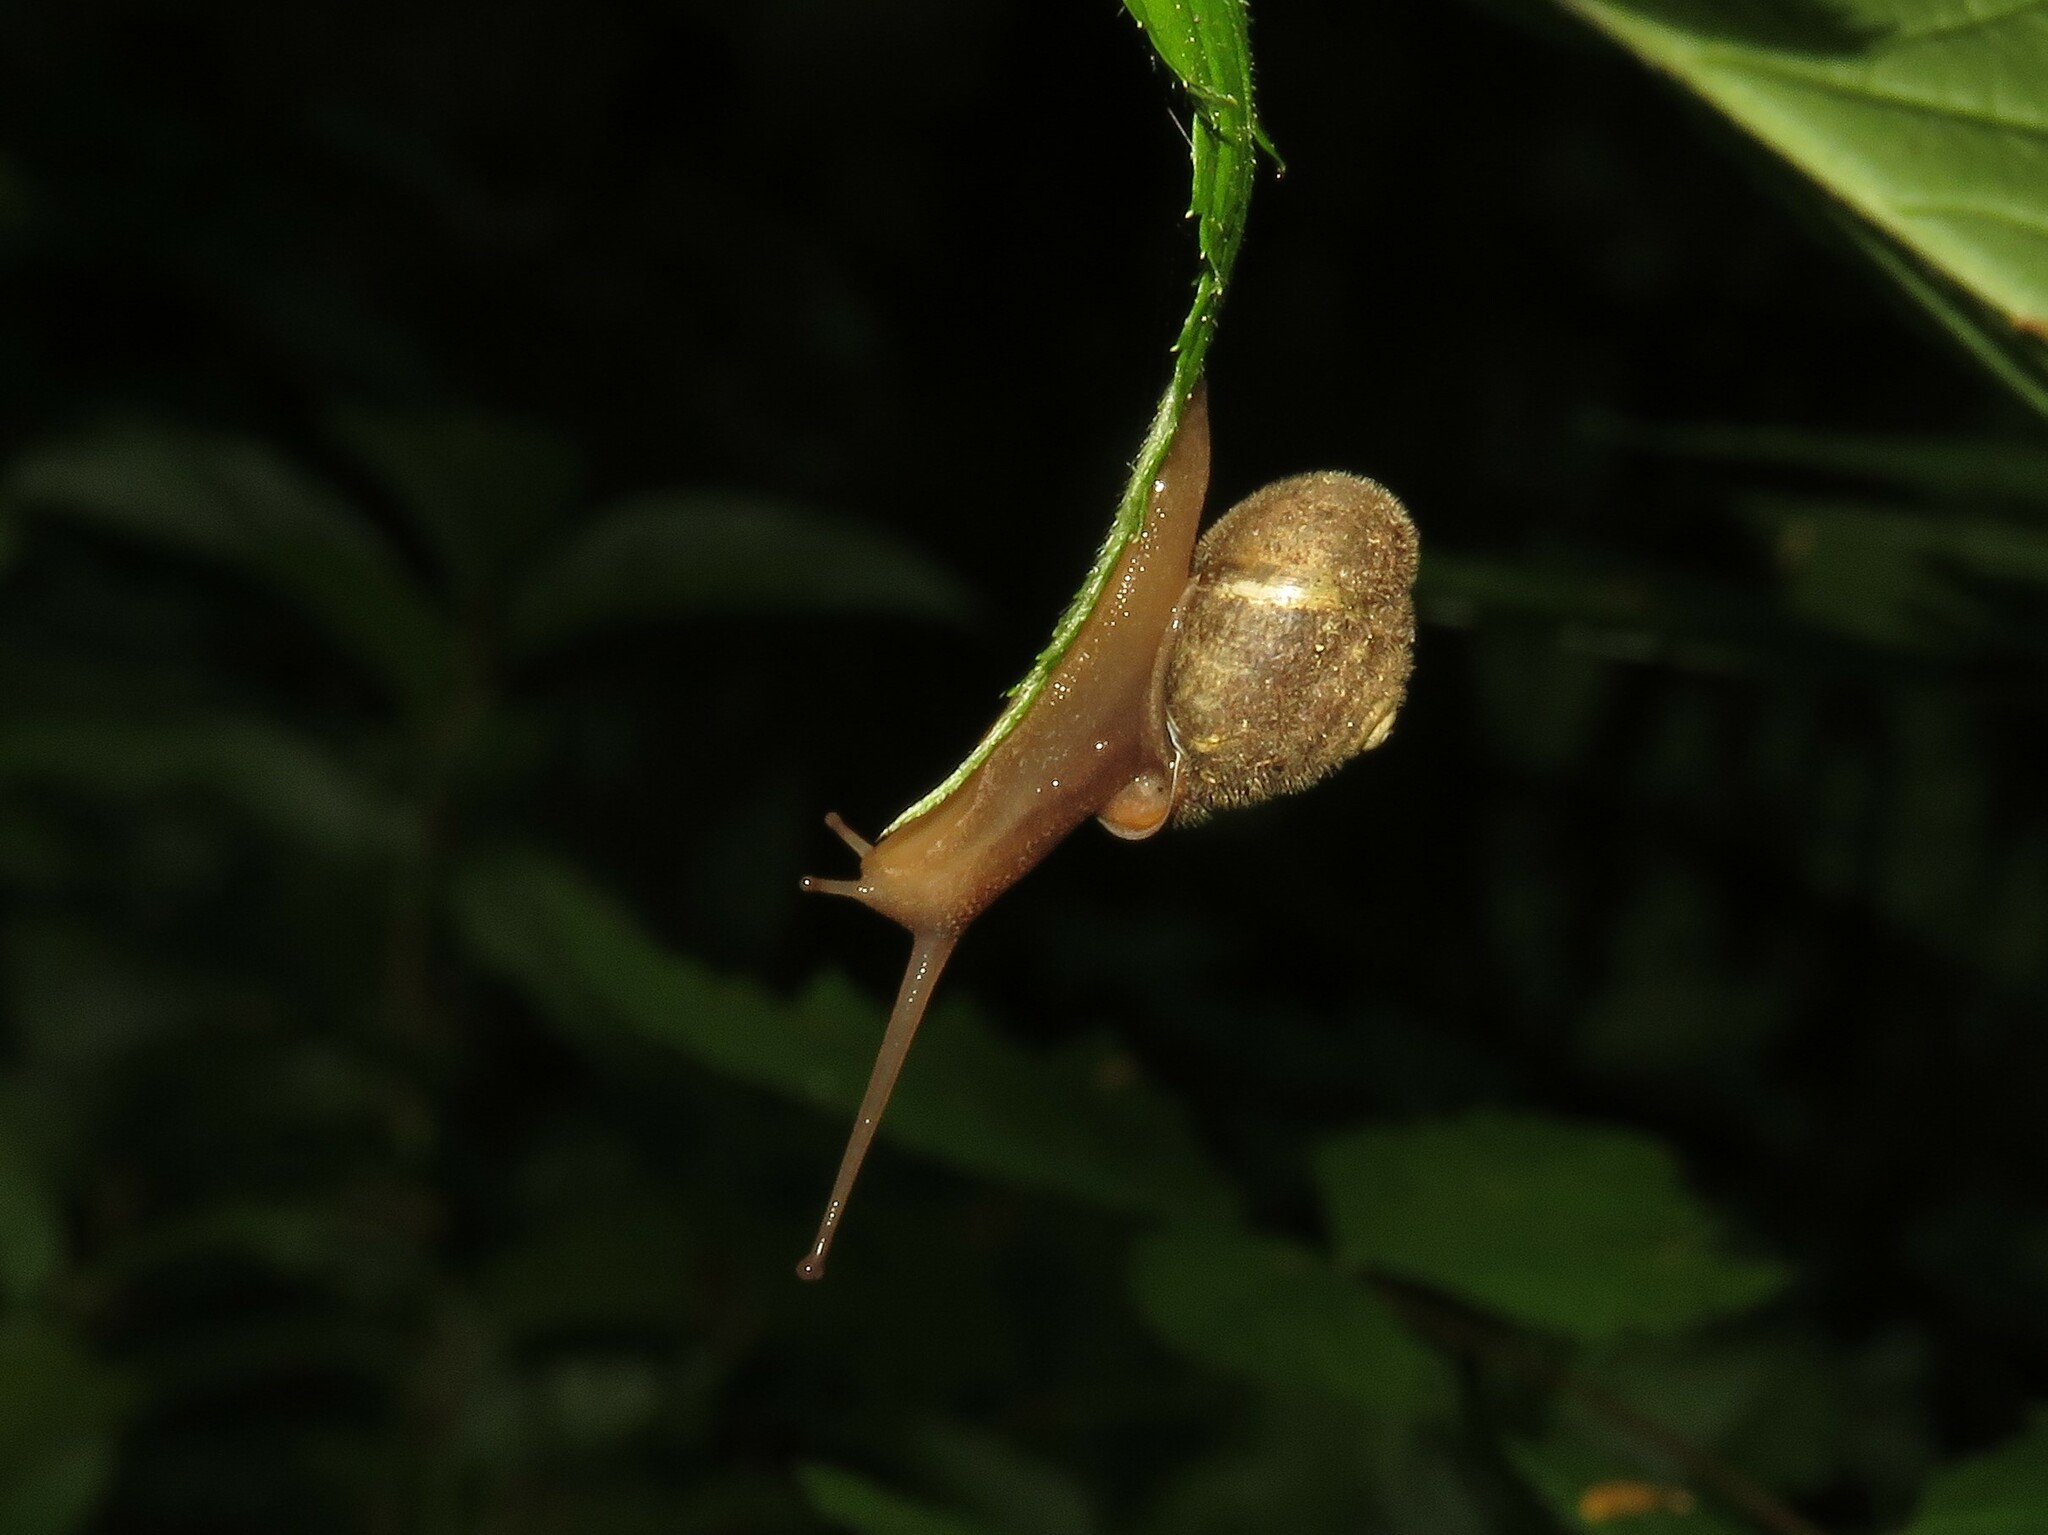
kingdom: Animalia
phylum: Mollusca
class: Gastropoda
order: Stylommatophora
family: Polygyridae
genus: Vespericola
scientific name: Vespericola columbianus
